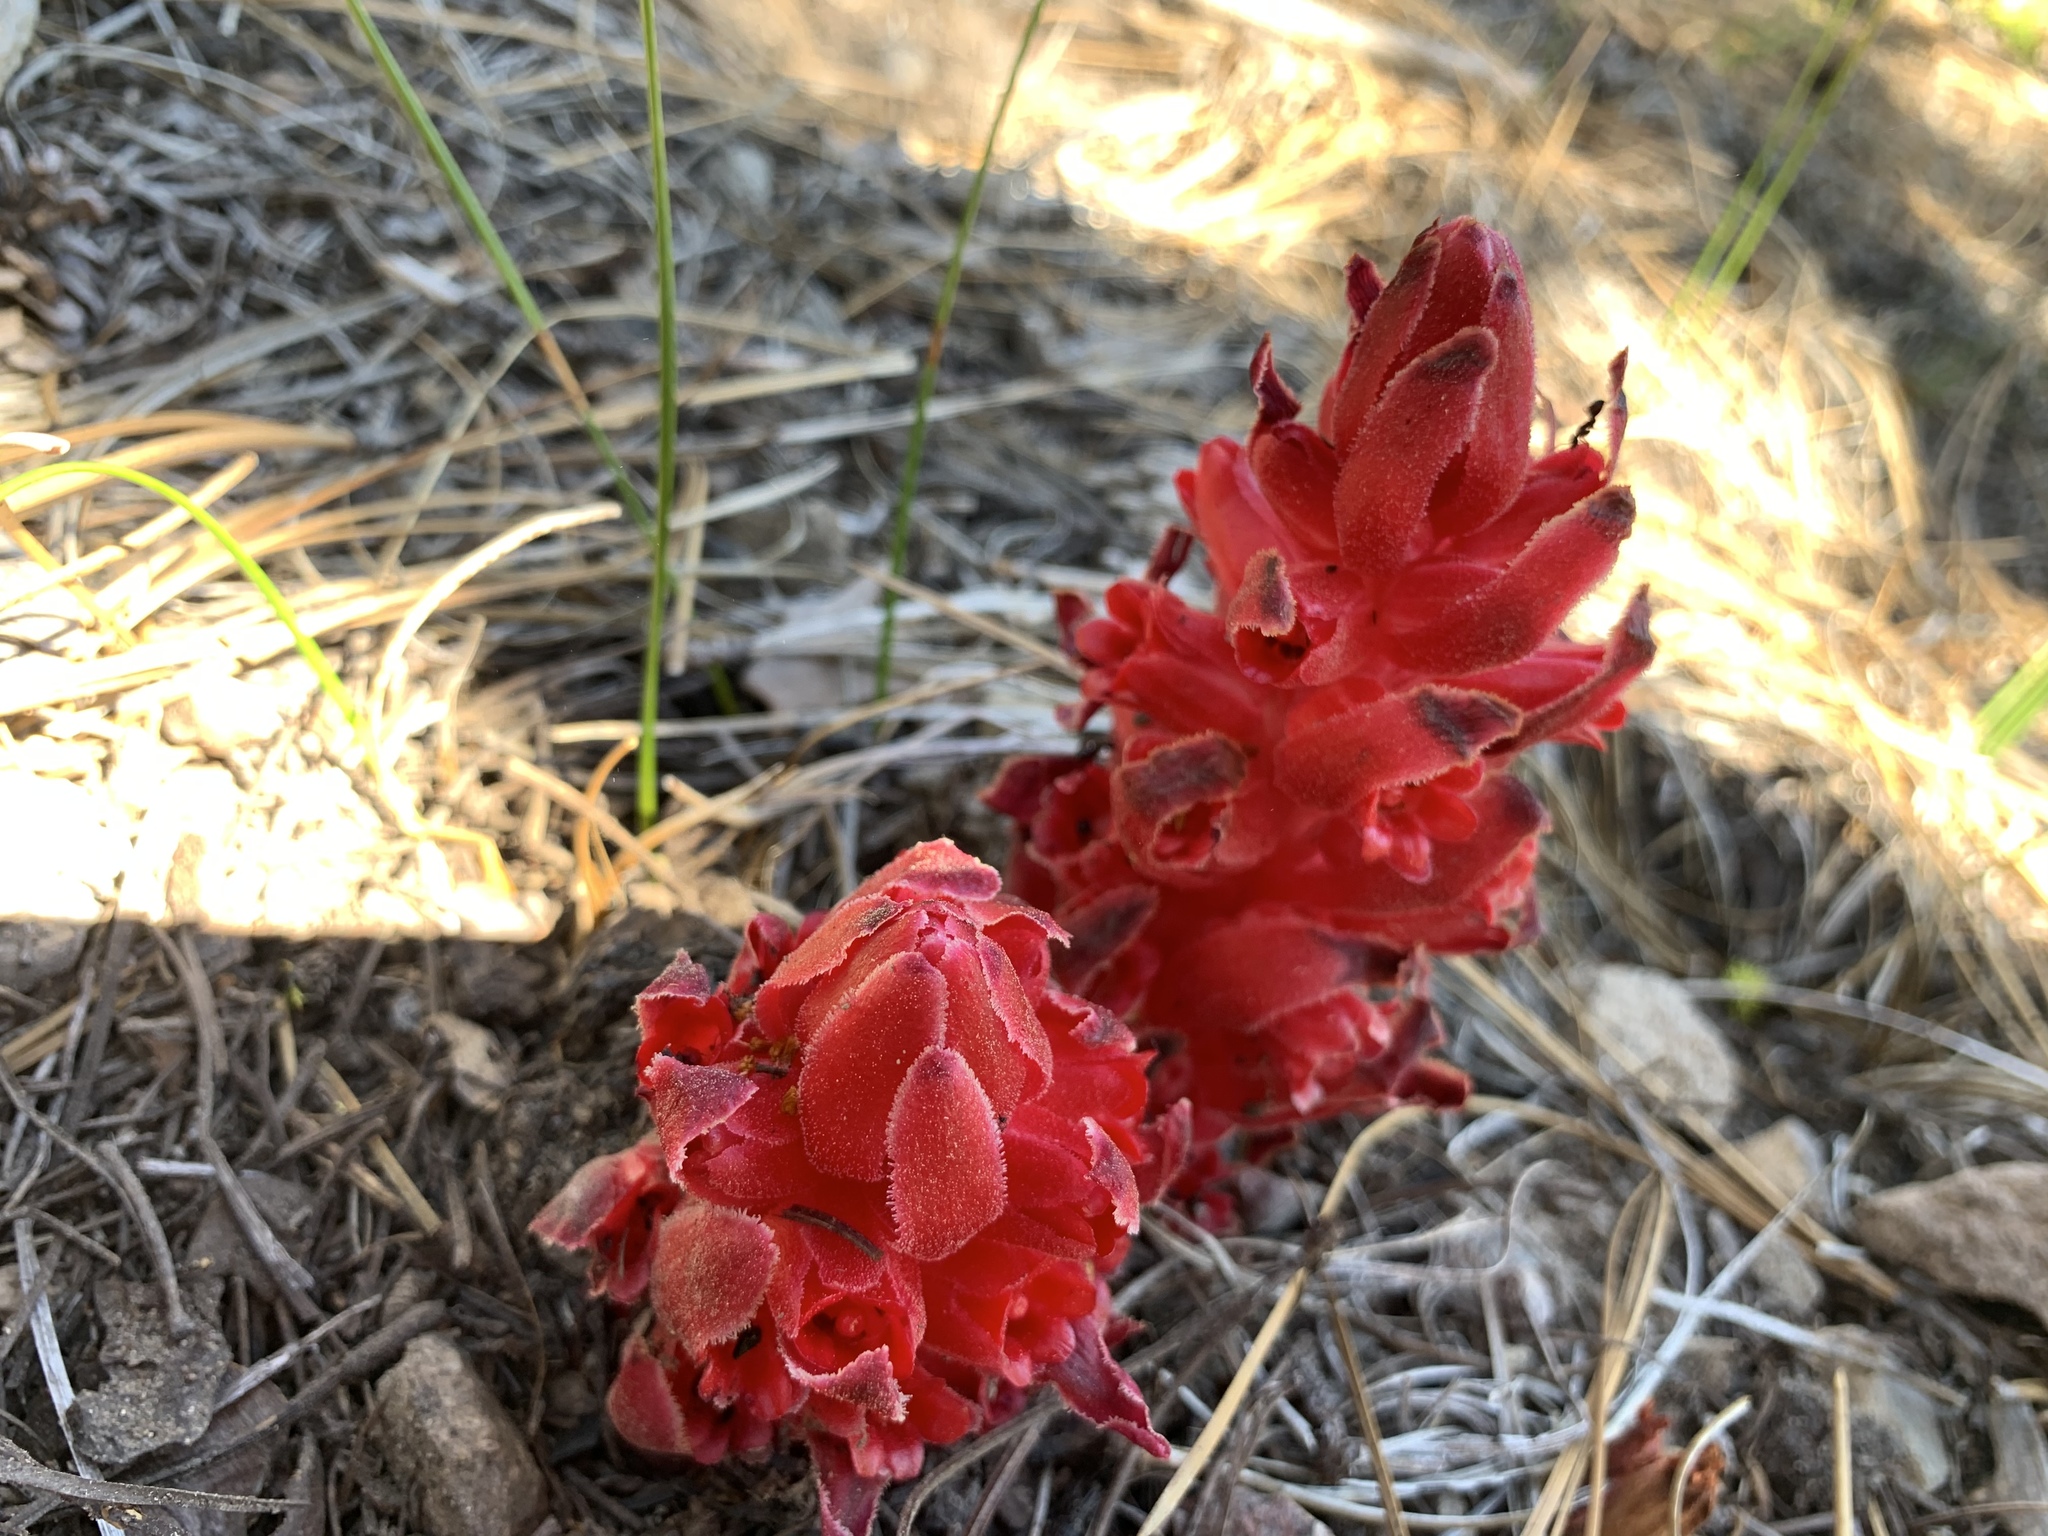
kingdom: Plantae
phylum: Tracheophyta
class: Magnoliopsida
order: Ericales
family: Ericaceae
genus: Sarcodes
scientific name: Sarcodes sanguinea
